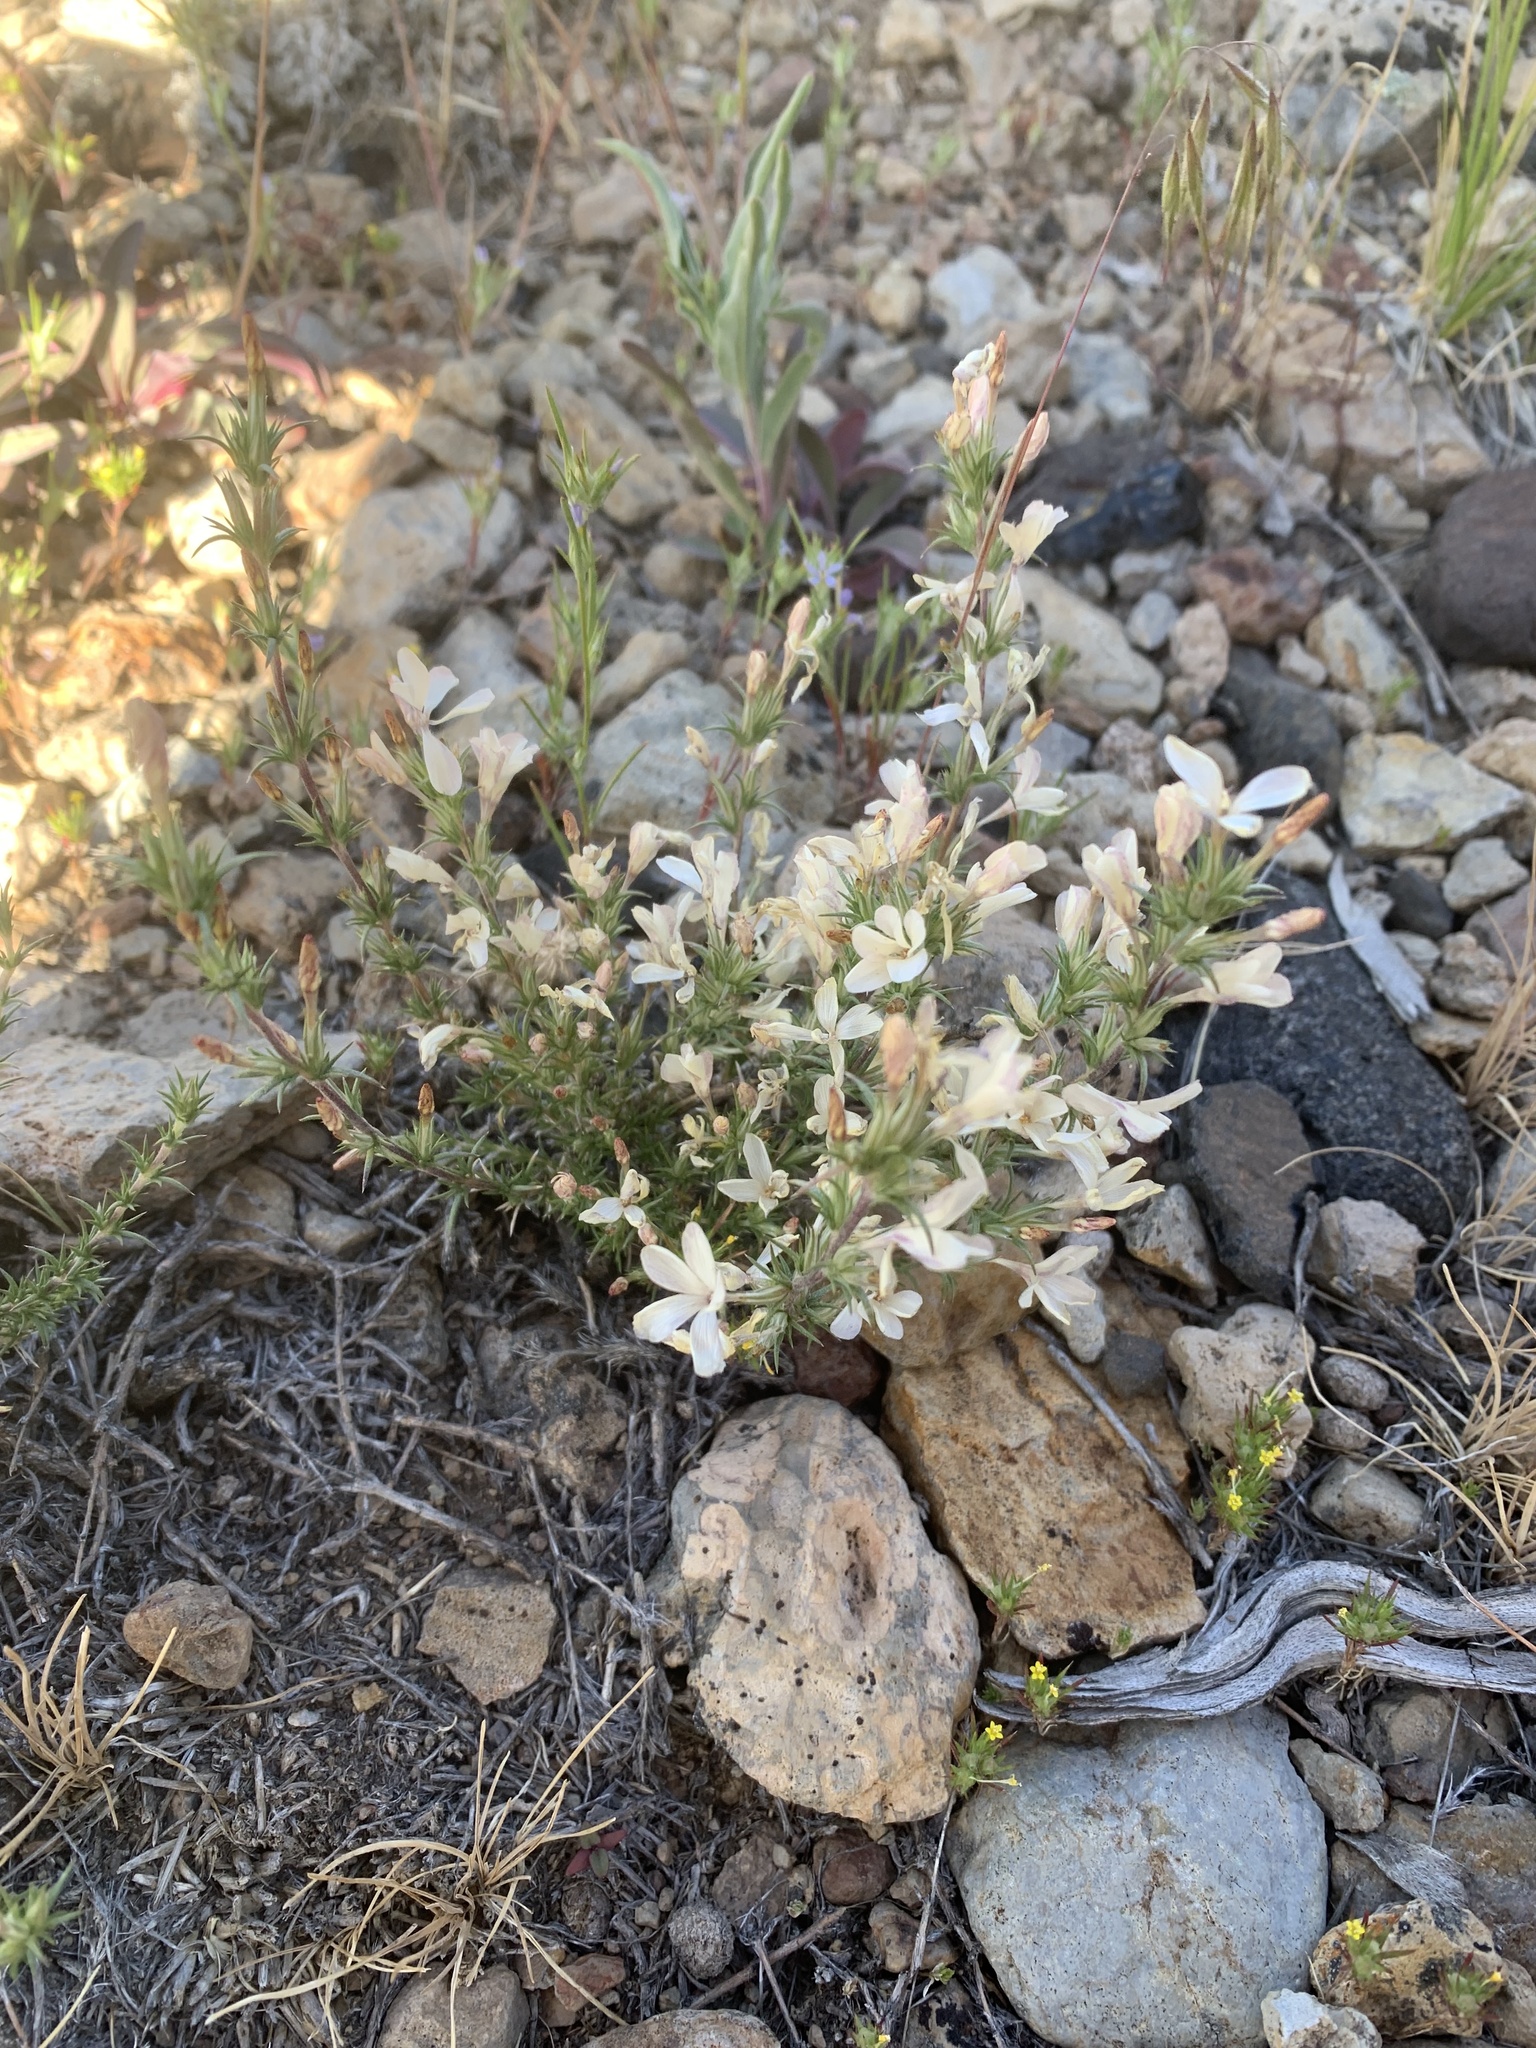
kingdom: Plantae
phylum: Tracheophyta
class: Magnoliopsida
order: Ericales
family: Polemoniaceae
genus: Linanthus
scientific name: Linanthus pungens
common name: Granite prickly phlox
